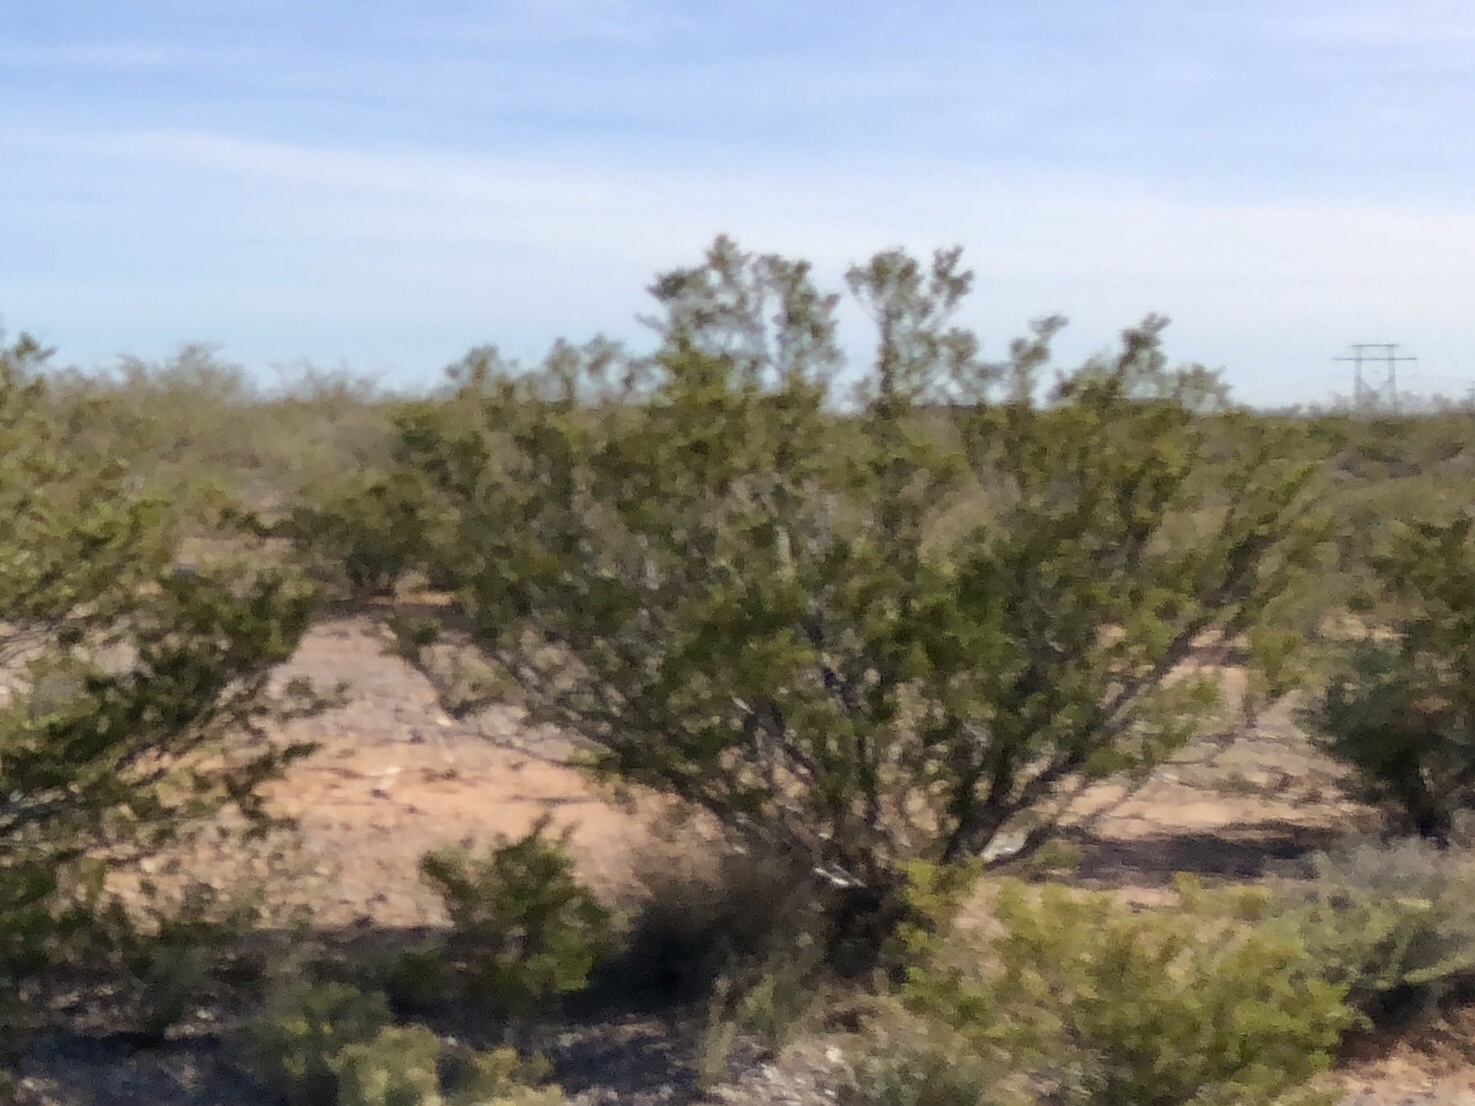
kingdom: Plantae
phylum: Tracheophyta
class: Magnoliopsida
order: Zygophyllales
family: Zygophyllaceae
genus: Larrea
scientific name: Larrea tridentata
